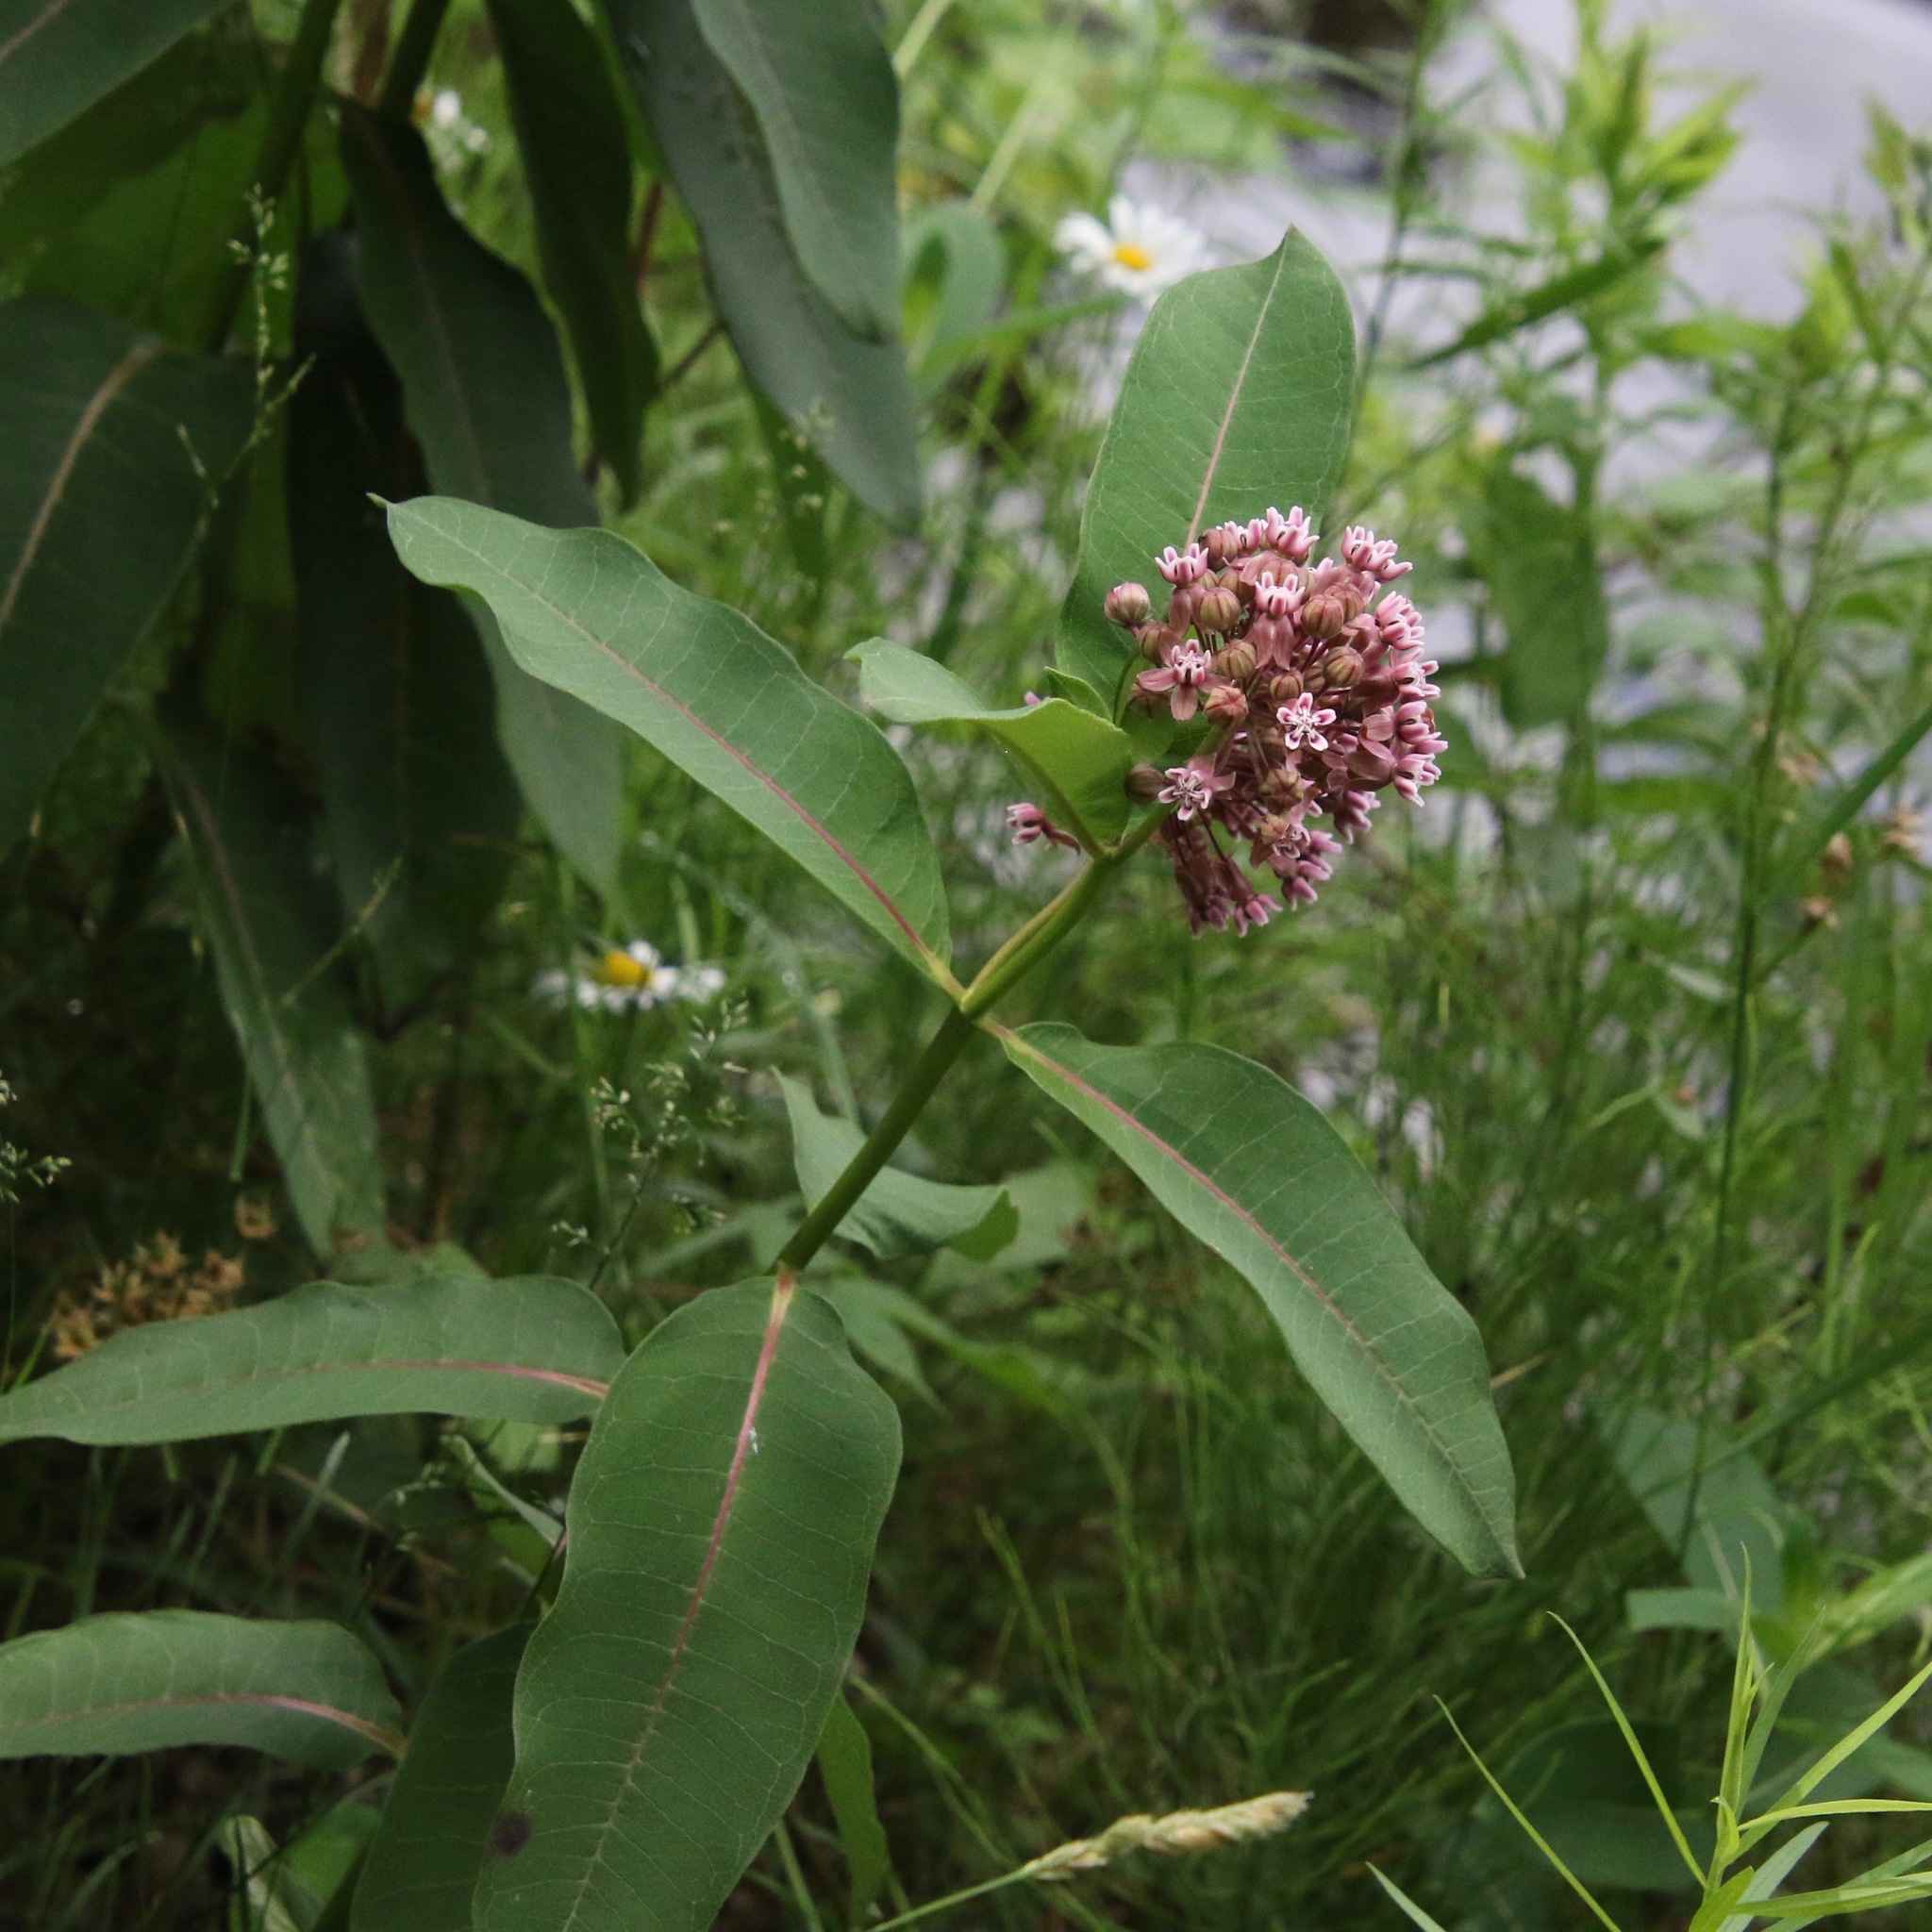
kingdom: Plantae
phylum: Tracheophyta
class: Magnoliopsida
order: Gentianales
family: Apocynaceae
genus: Asclepias
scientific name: Asclepias syriaca
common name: Common milkweed
